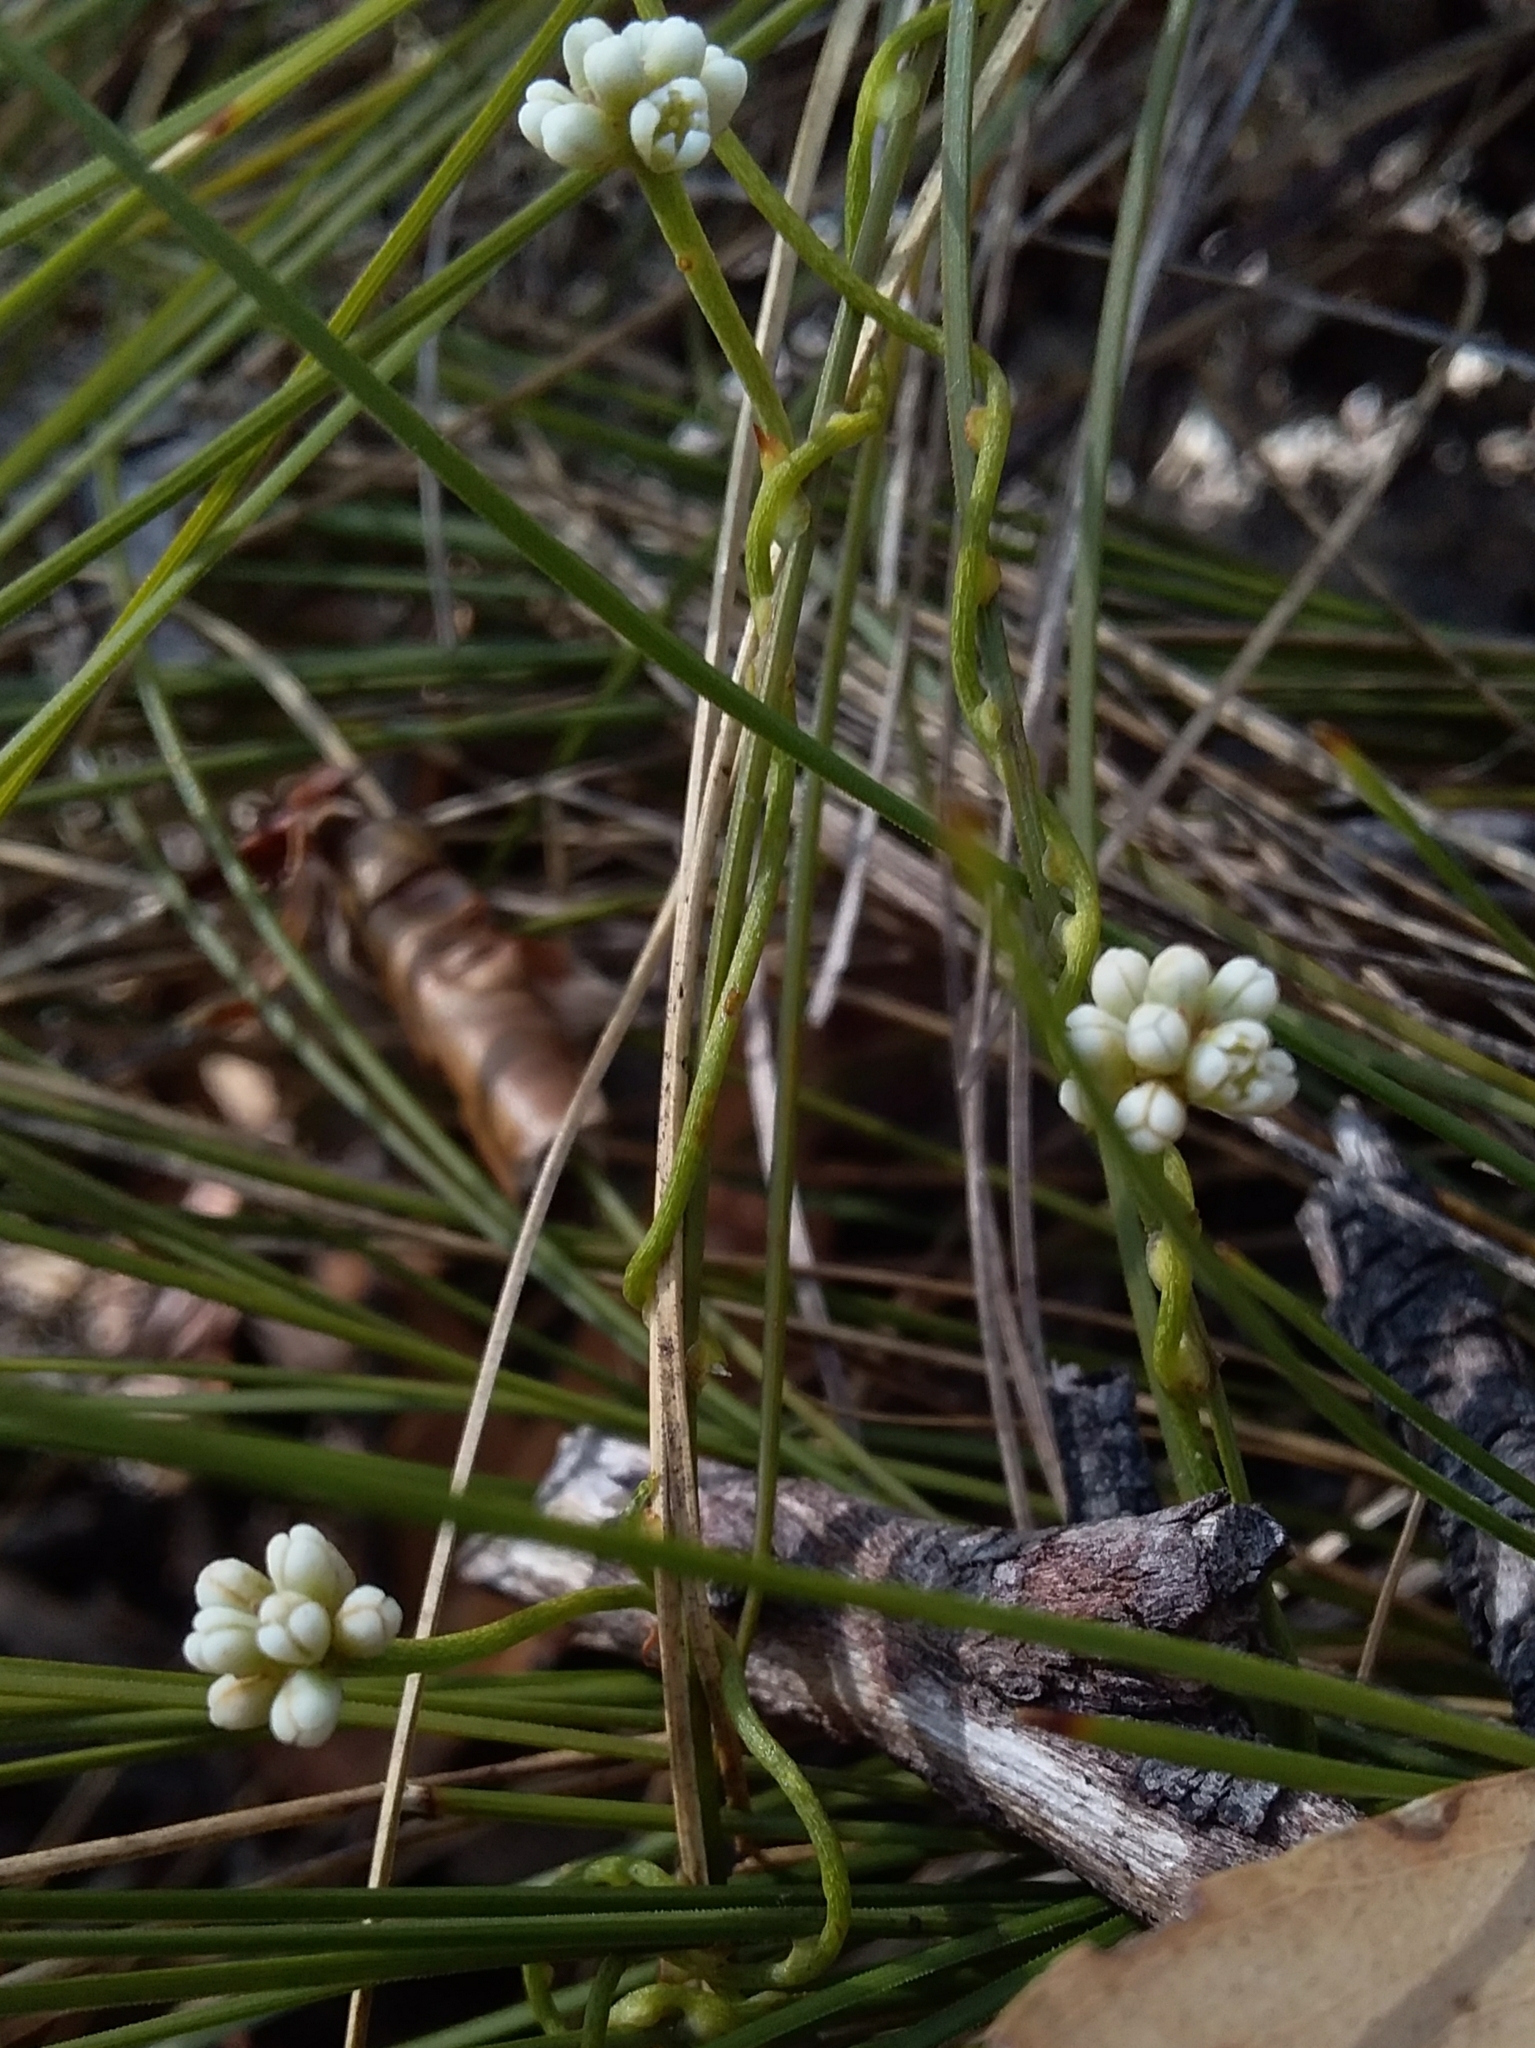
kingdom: Plantae
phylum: Tracheophyta
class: Magnoliopsida
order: Laurales
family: Lauraceae
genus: Cassytha
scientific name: Cassytha glabella
